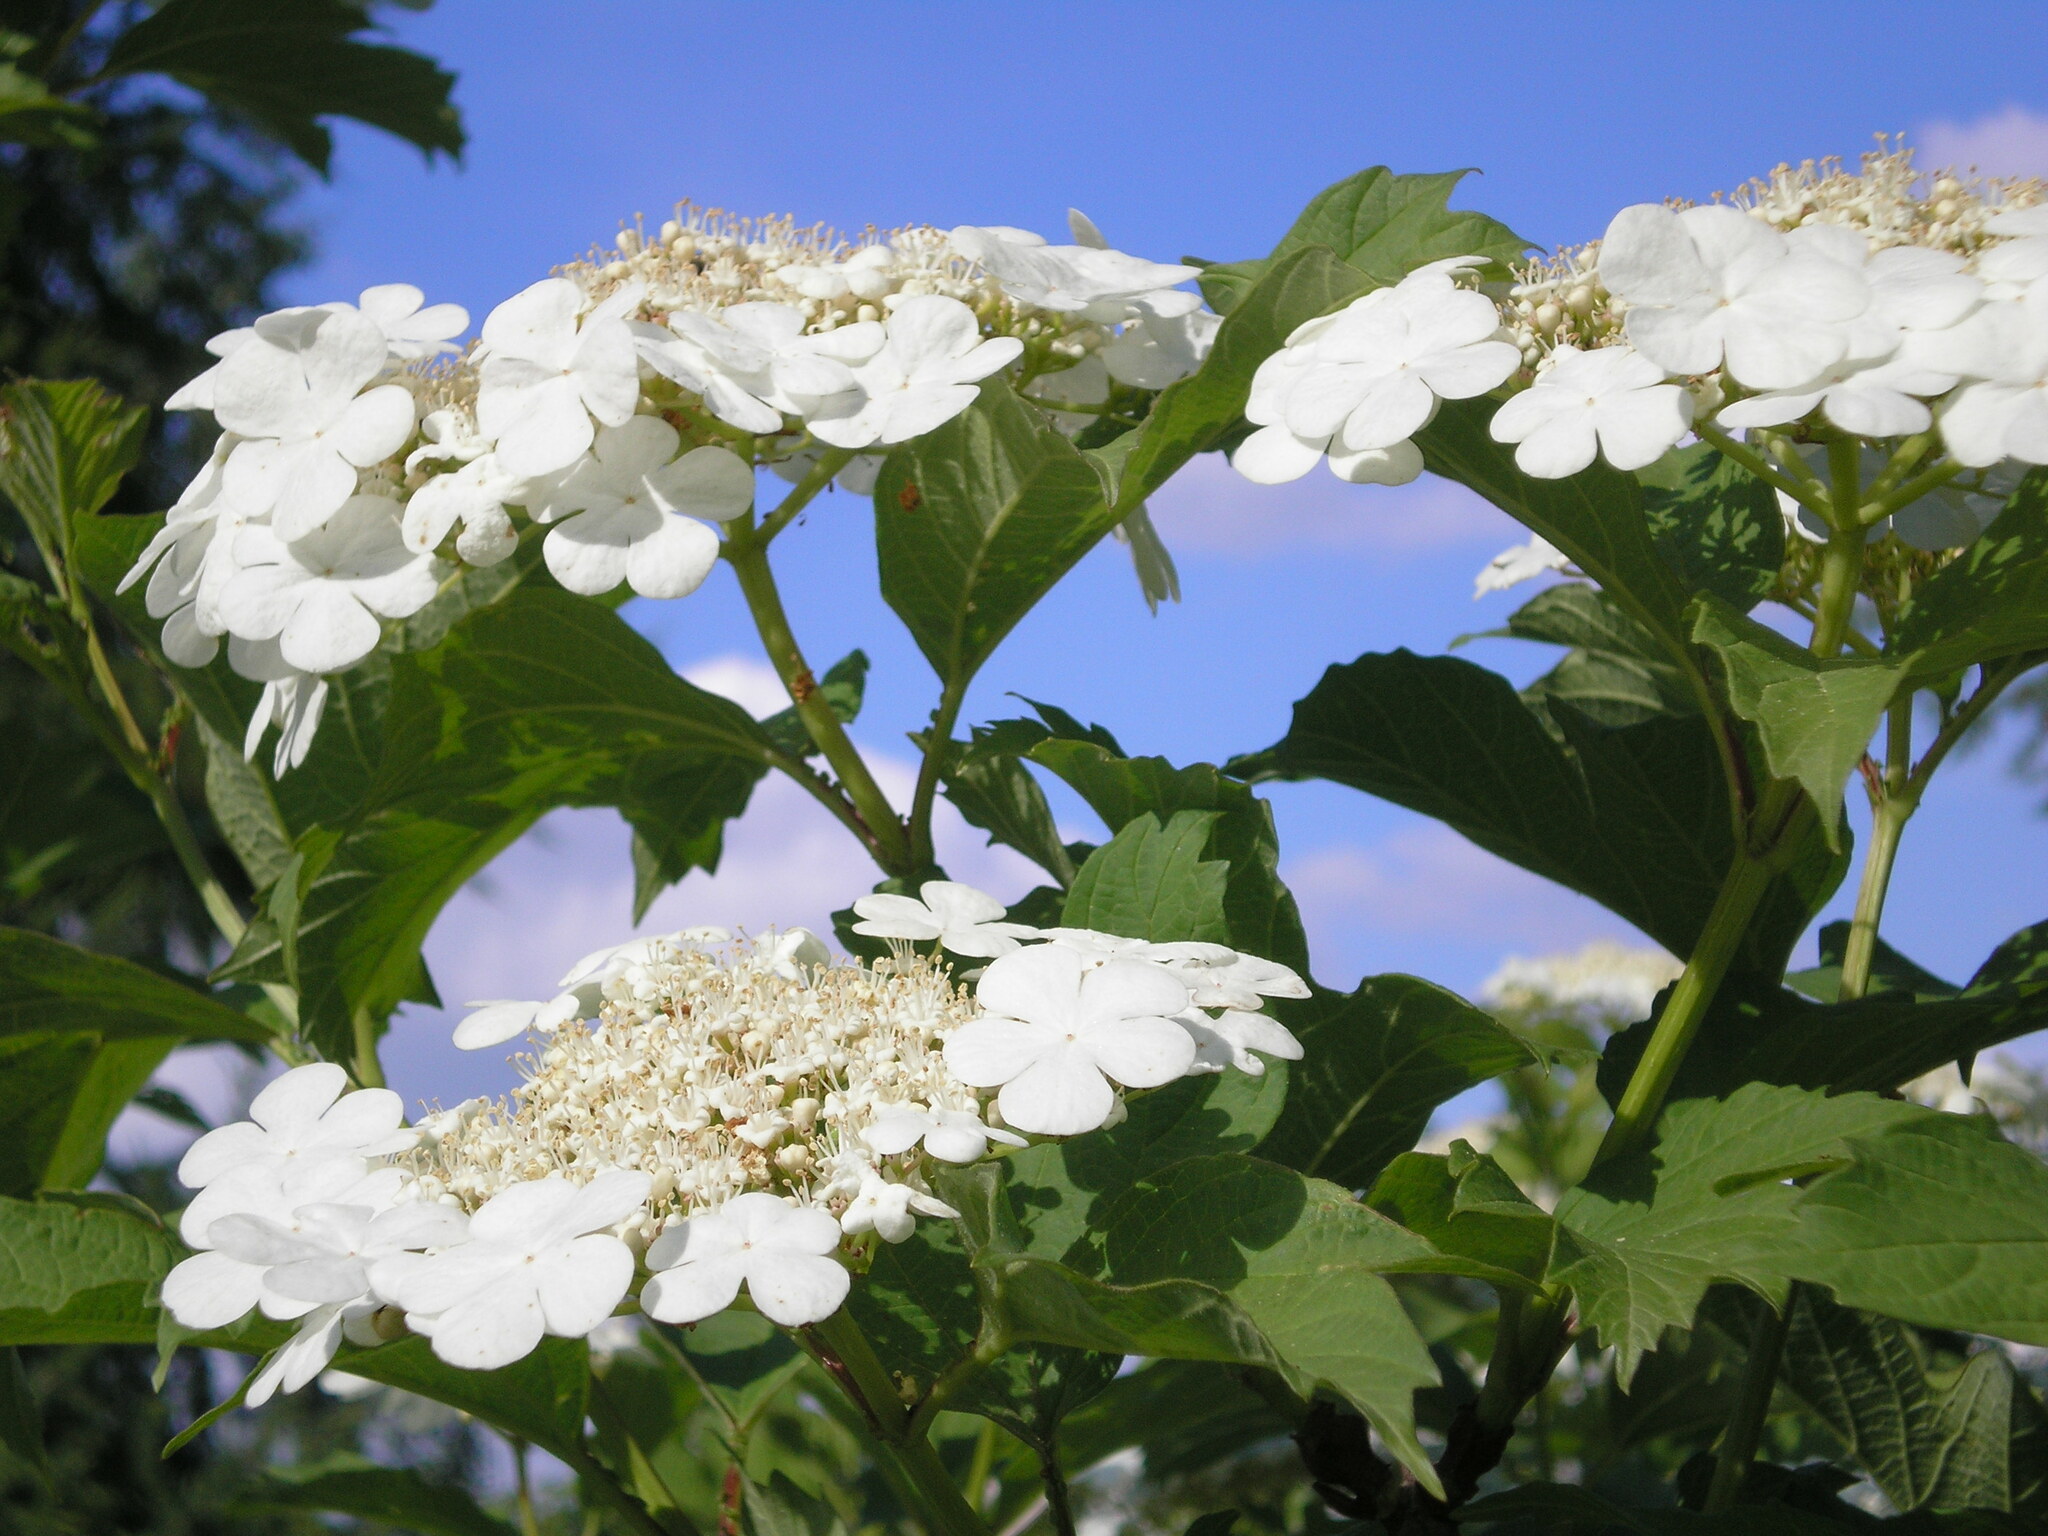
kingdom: Plantae
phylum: Tracheophyta
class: Magnoliopsida
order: Dipsacales
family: Viburnaceae
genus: Viburnum
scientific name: Viburnum opulus
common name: Guelder-rose
